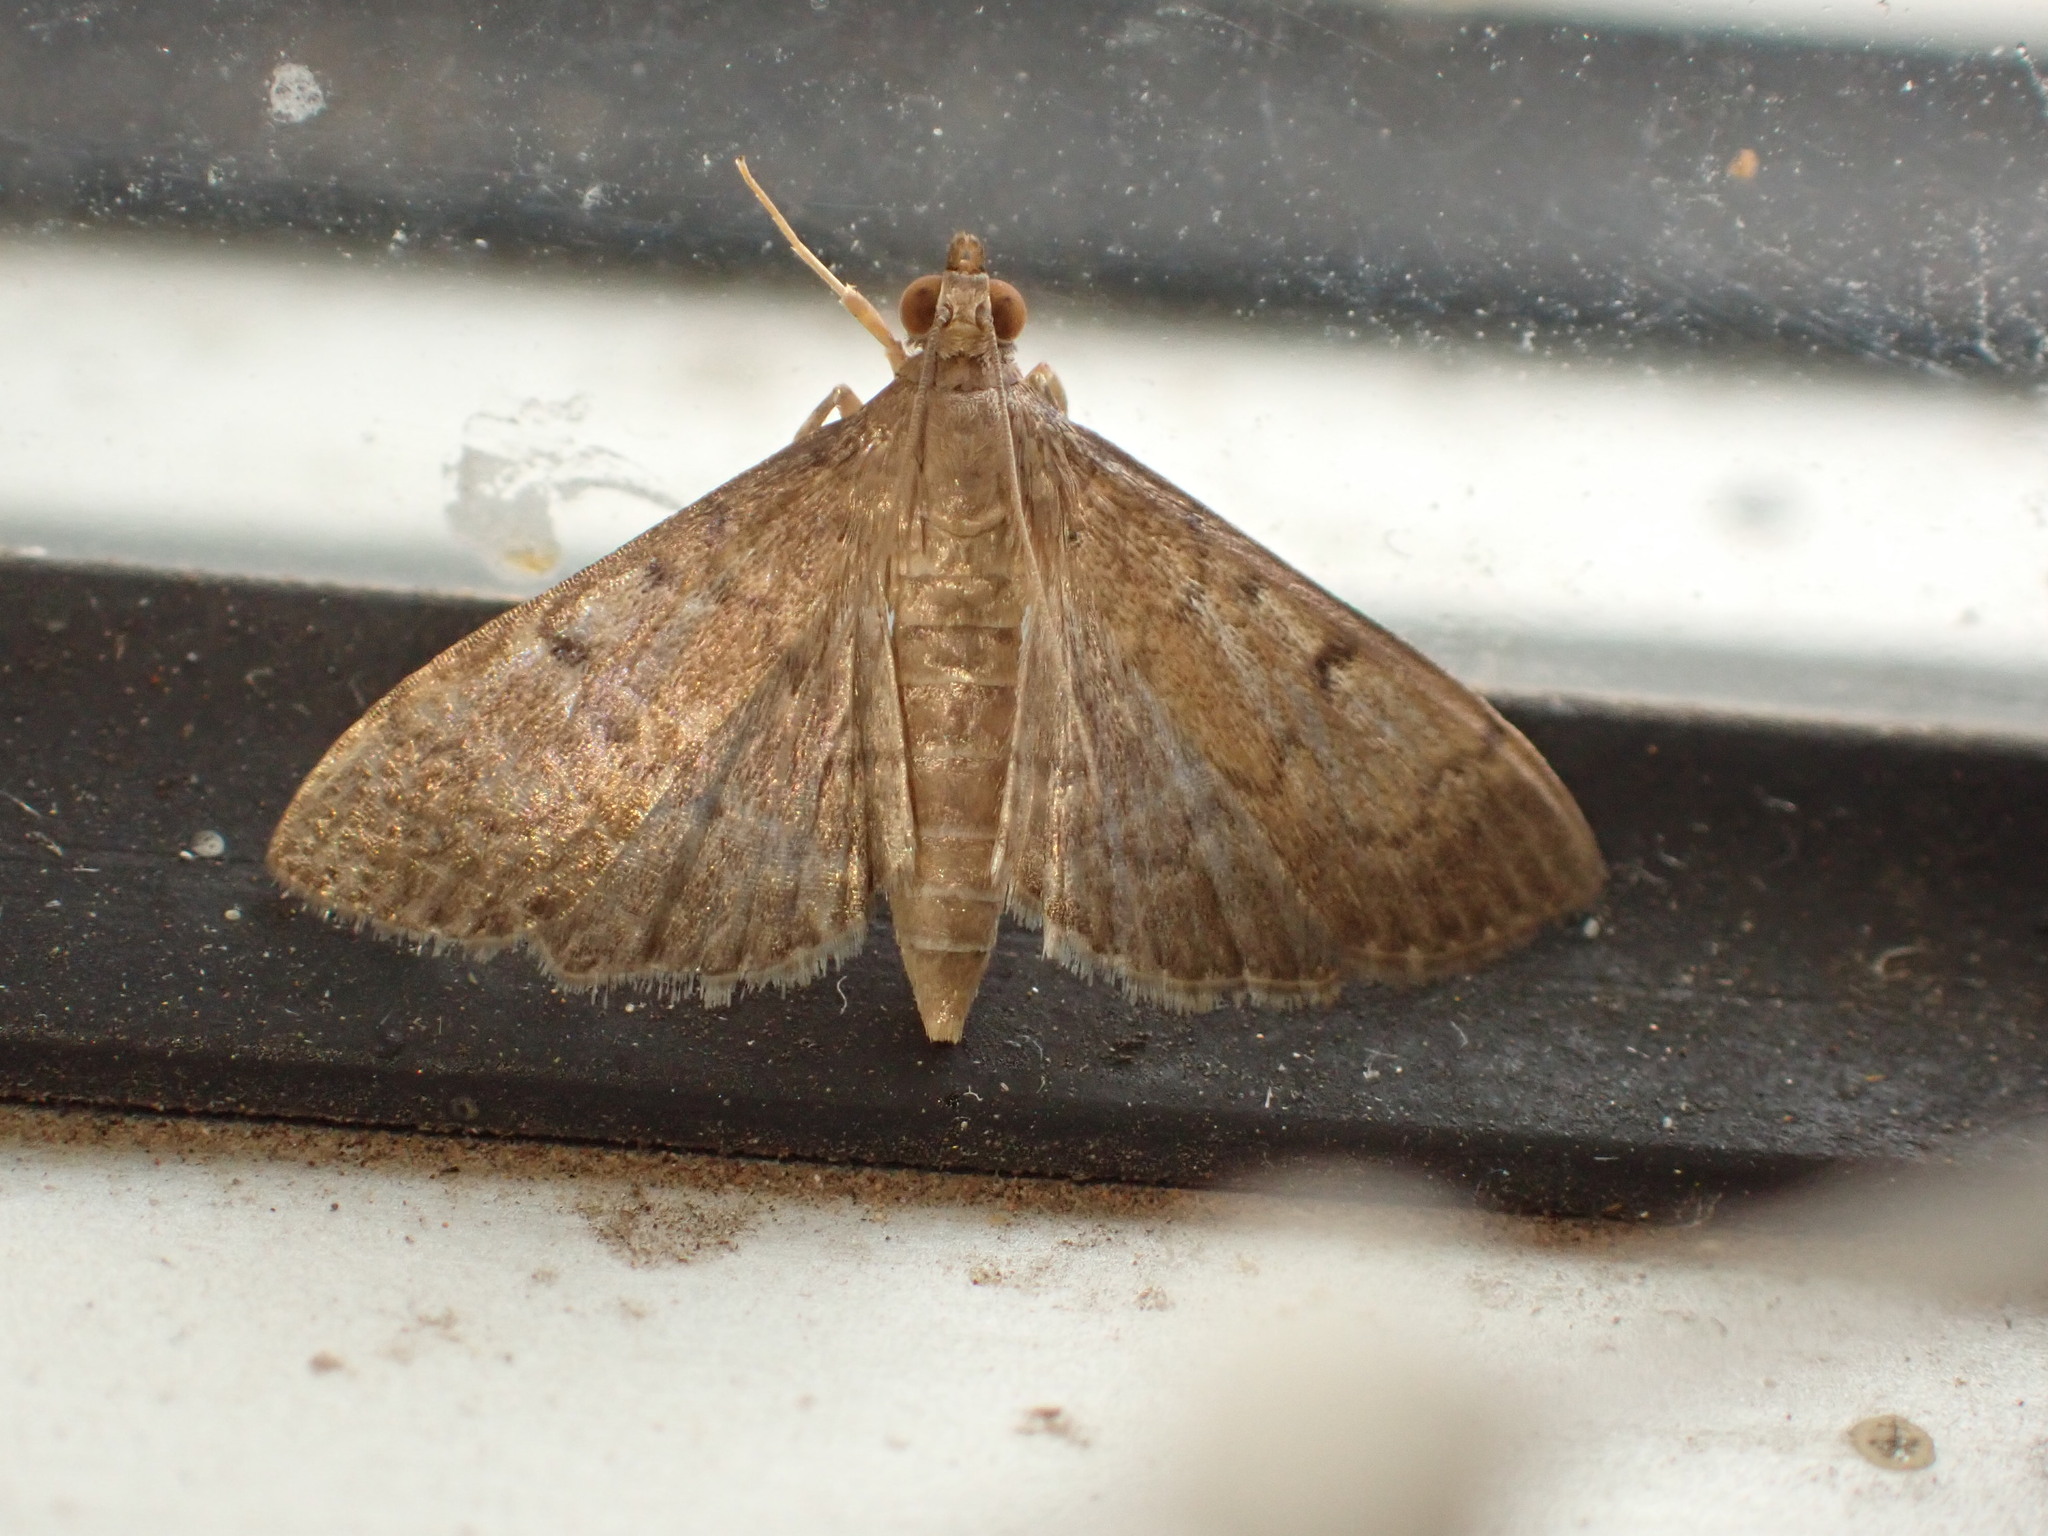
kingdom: Animalia
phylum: Arthropoda
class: Insecta
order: Lepidoptera
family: Crambidae
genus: Herpetogramma
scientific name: Herpetogramma phaeopteralis
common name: Dusky herpetogramma moth
